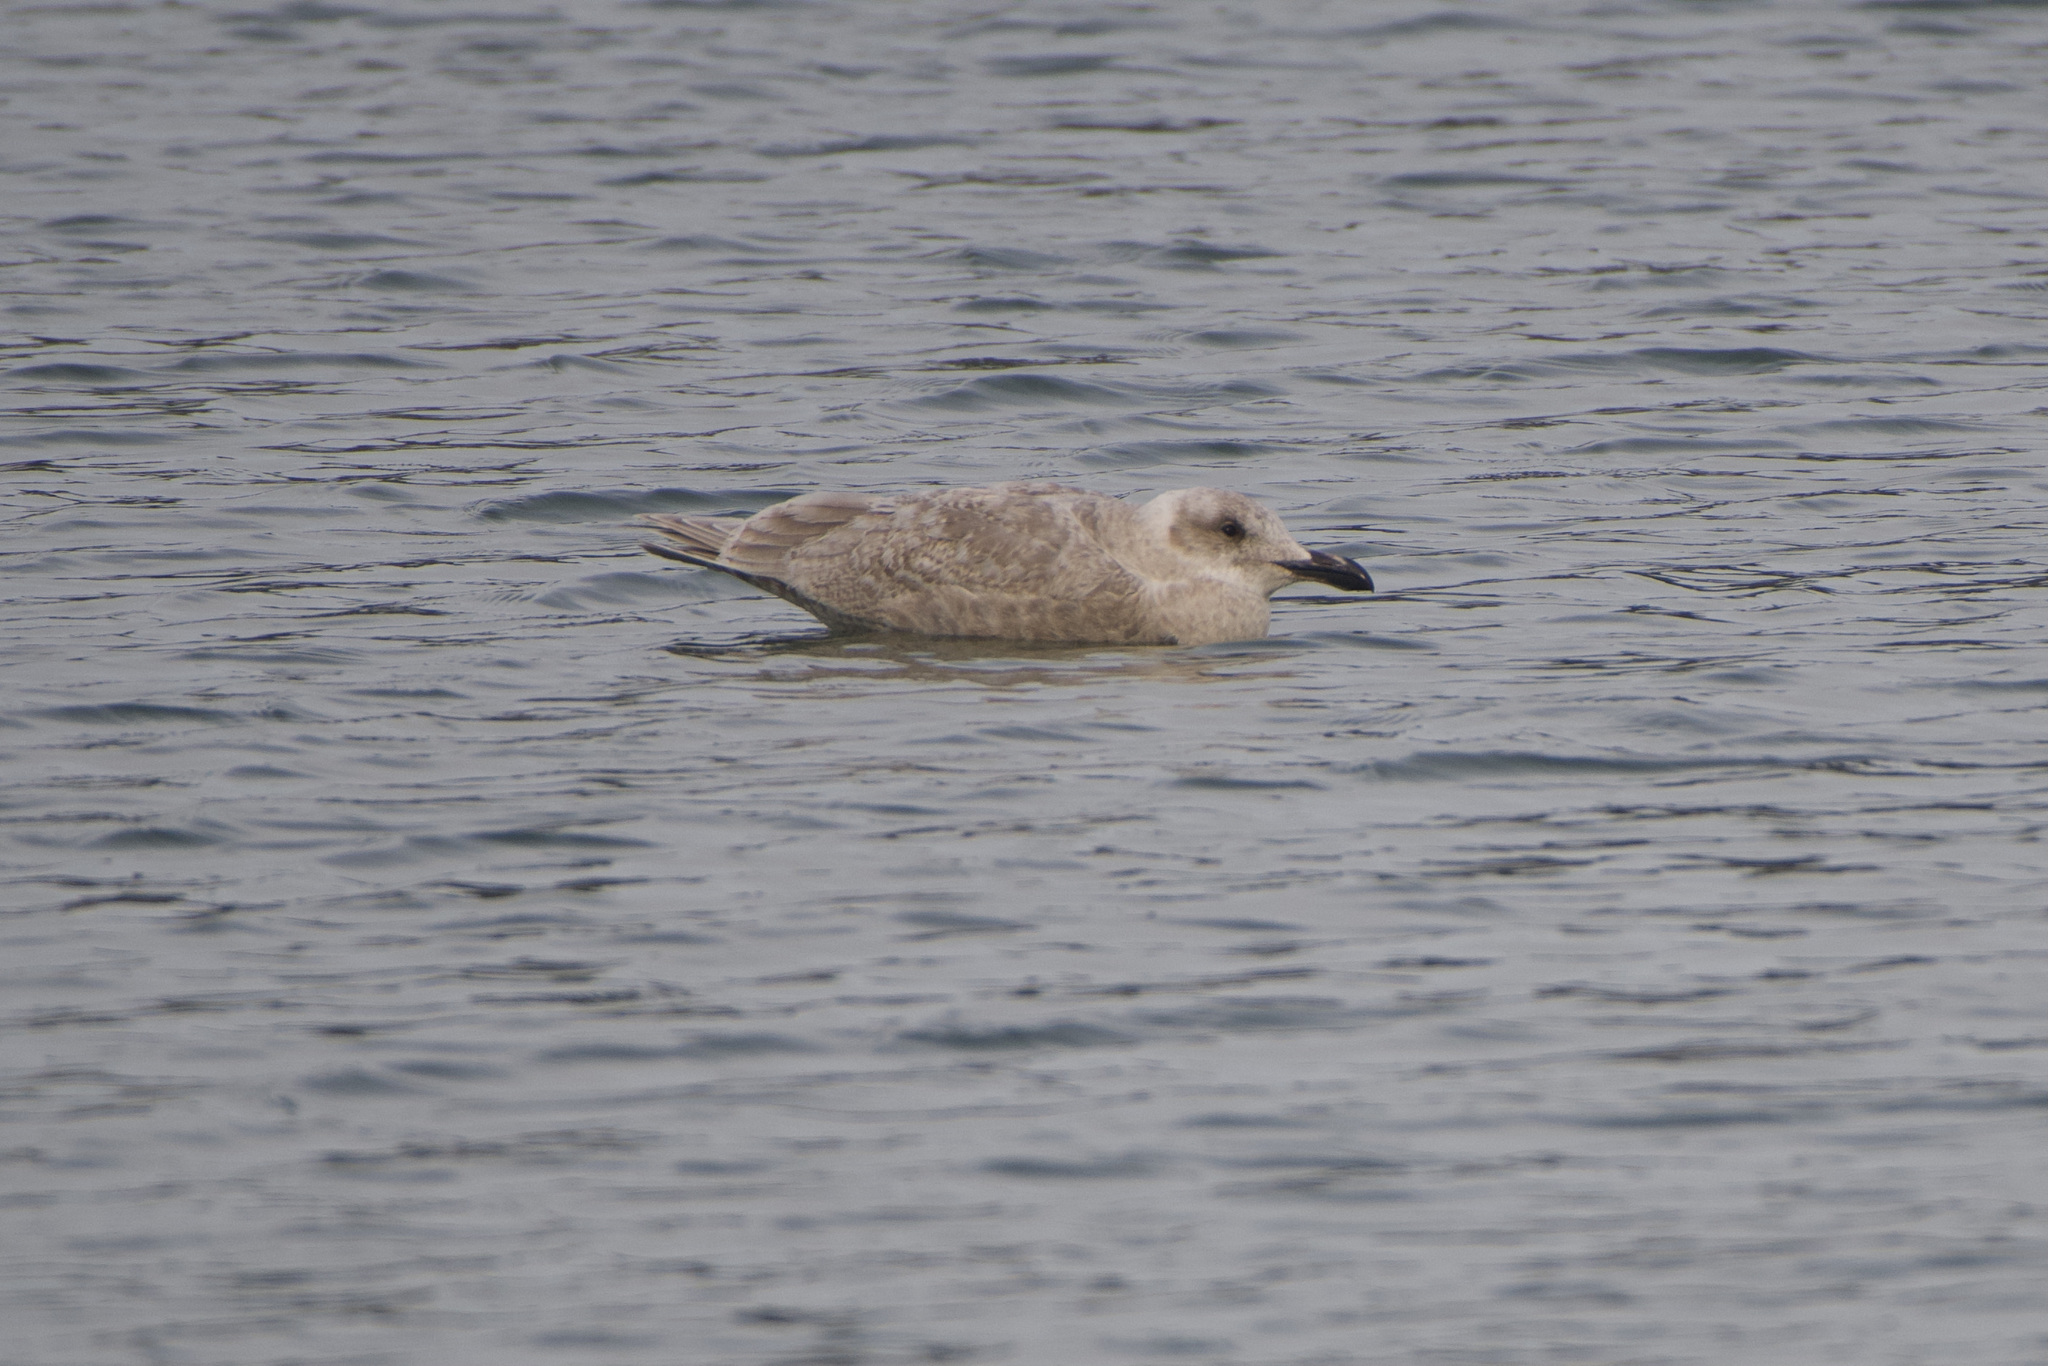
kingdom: Animalia
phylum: Chordata
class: Aves
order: Charadriiformes
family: Laridae
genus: Larus
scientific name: Larus glaucescens
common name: Glaucous-winged gull
